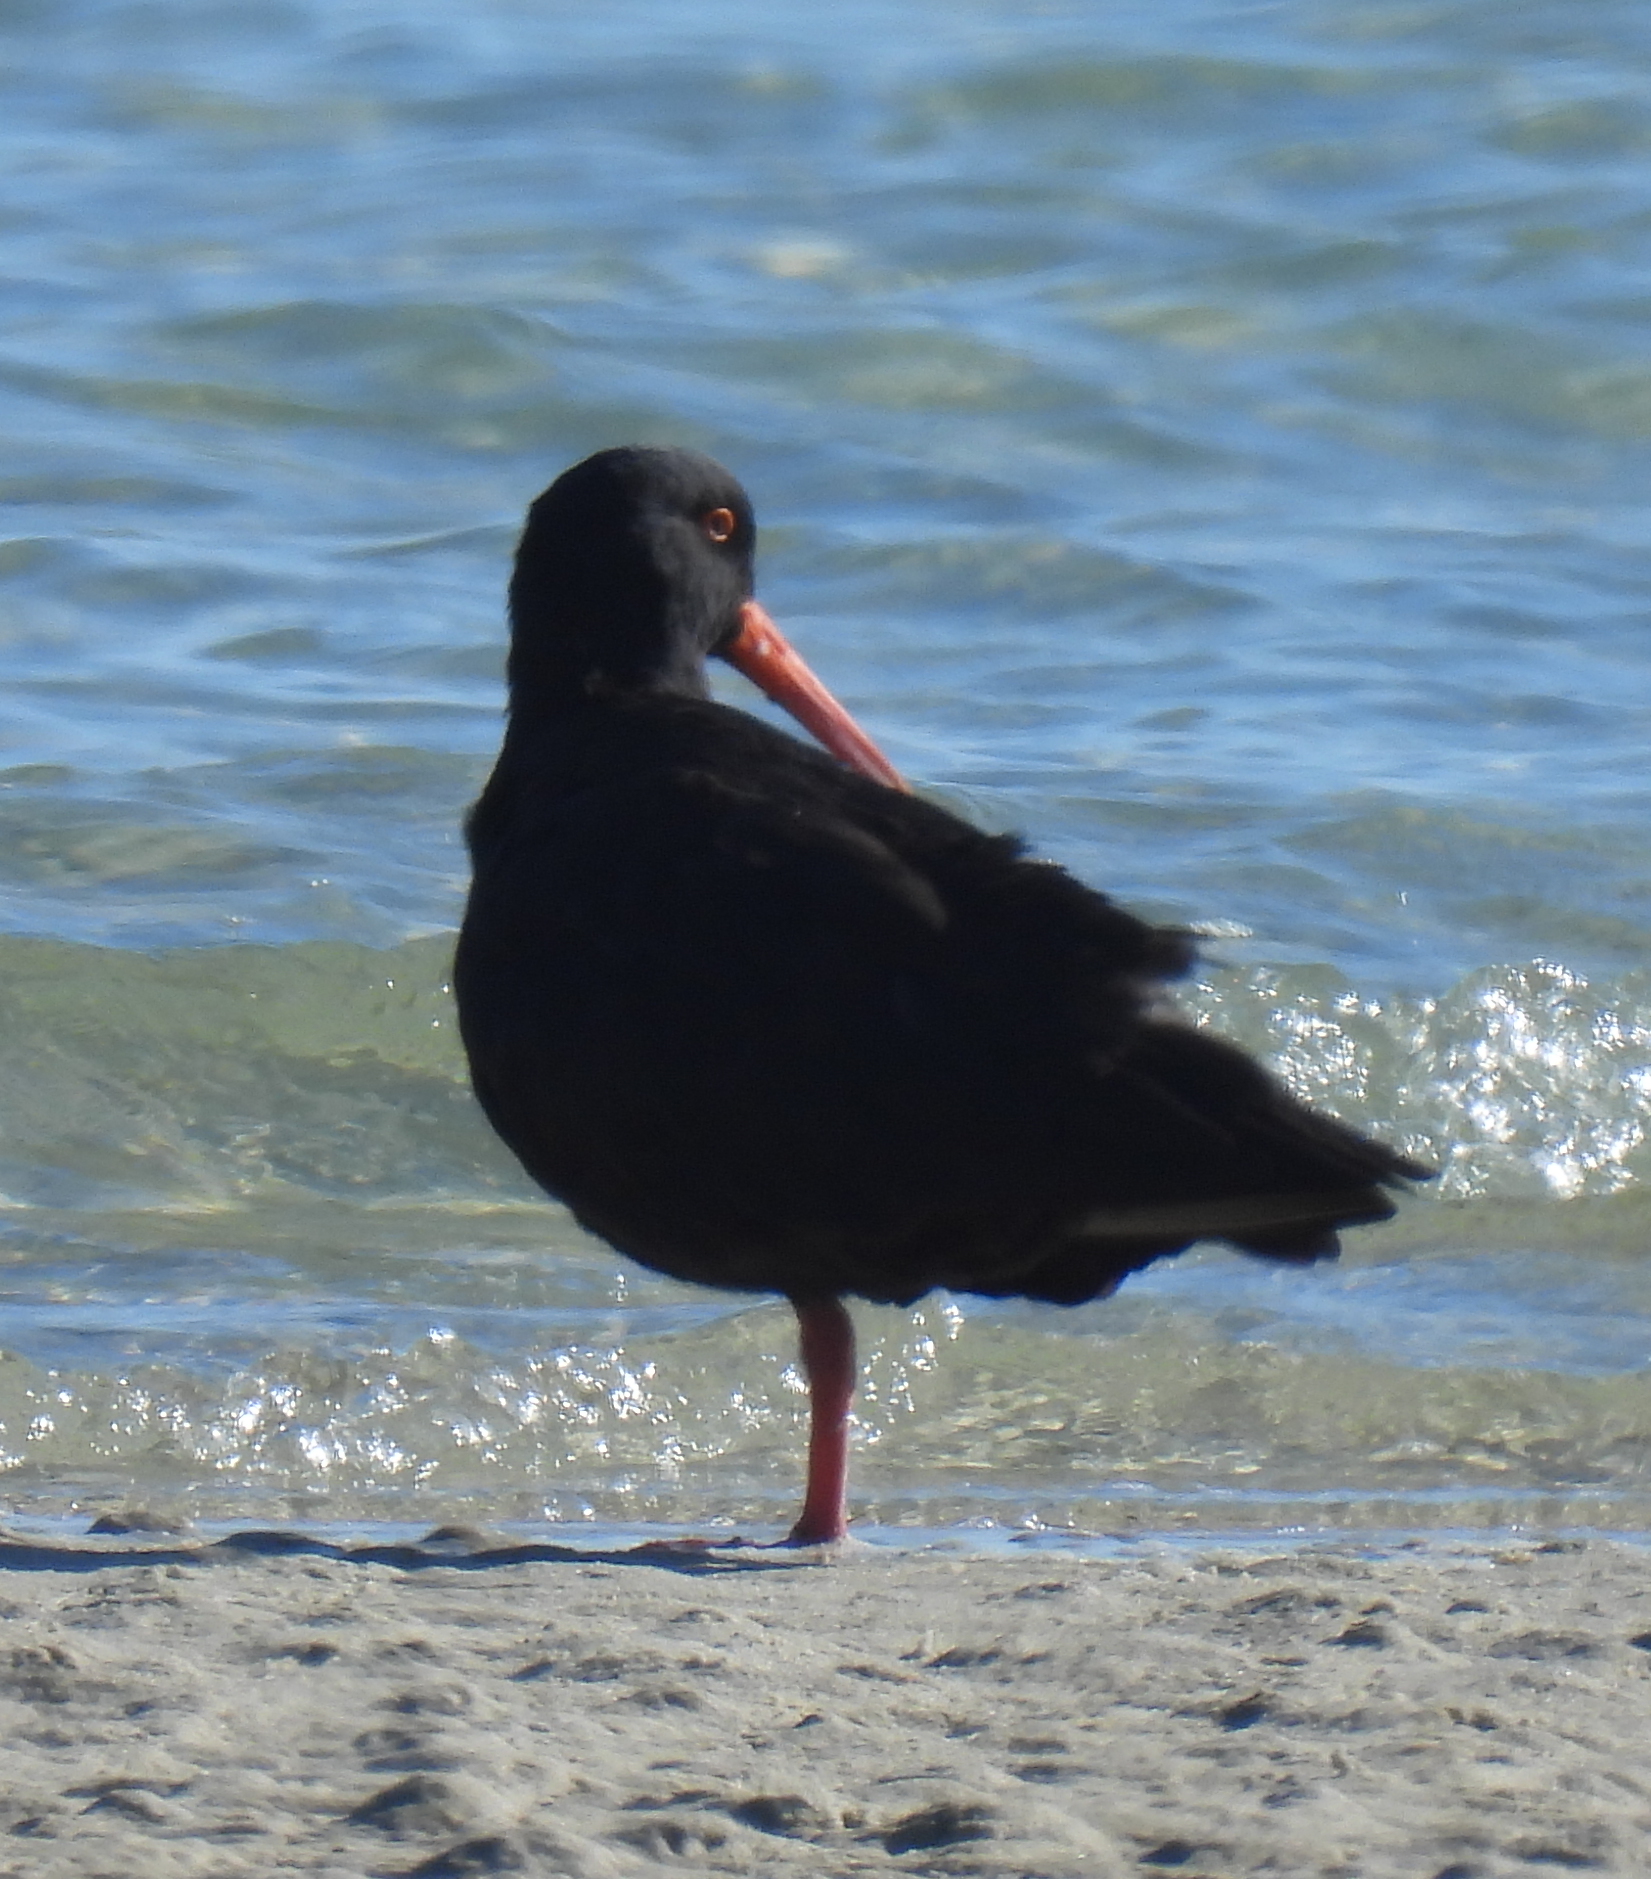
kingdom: Animalia
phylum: Chordata
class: Aves
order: Charadriiformes
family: Haematopodidae
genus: Haematopus
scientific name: Haematopus moquini
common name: African oystercatcher
